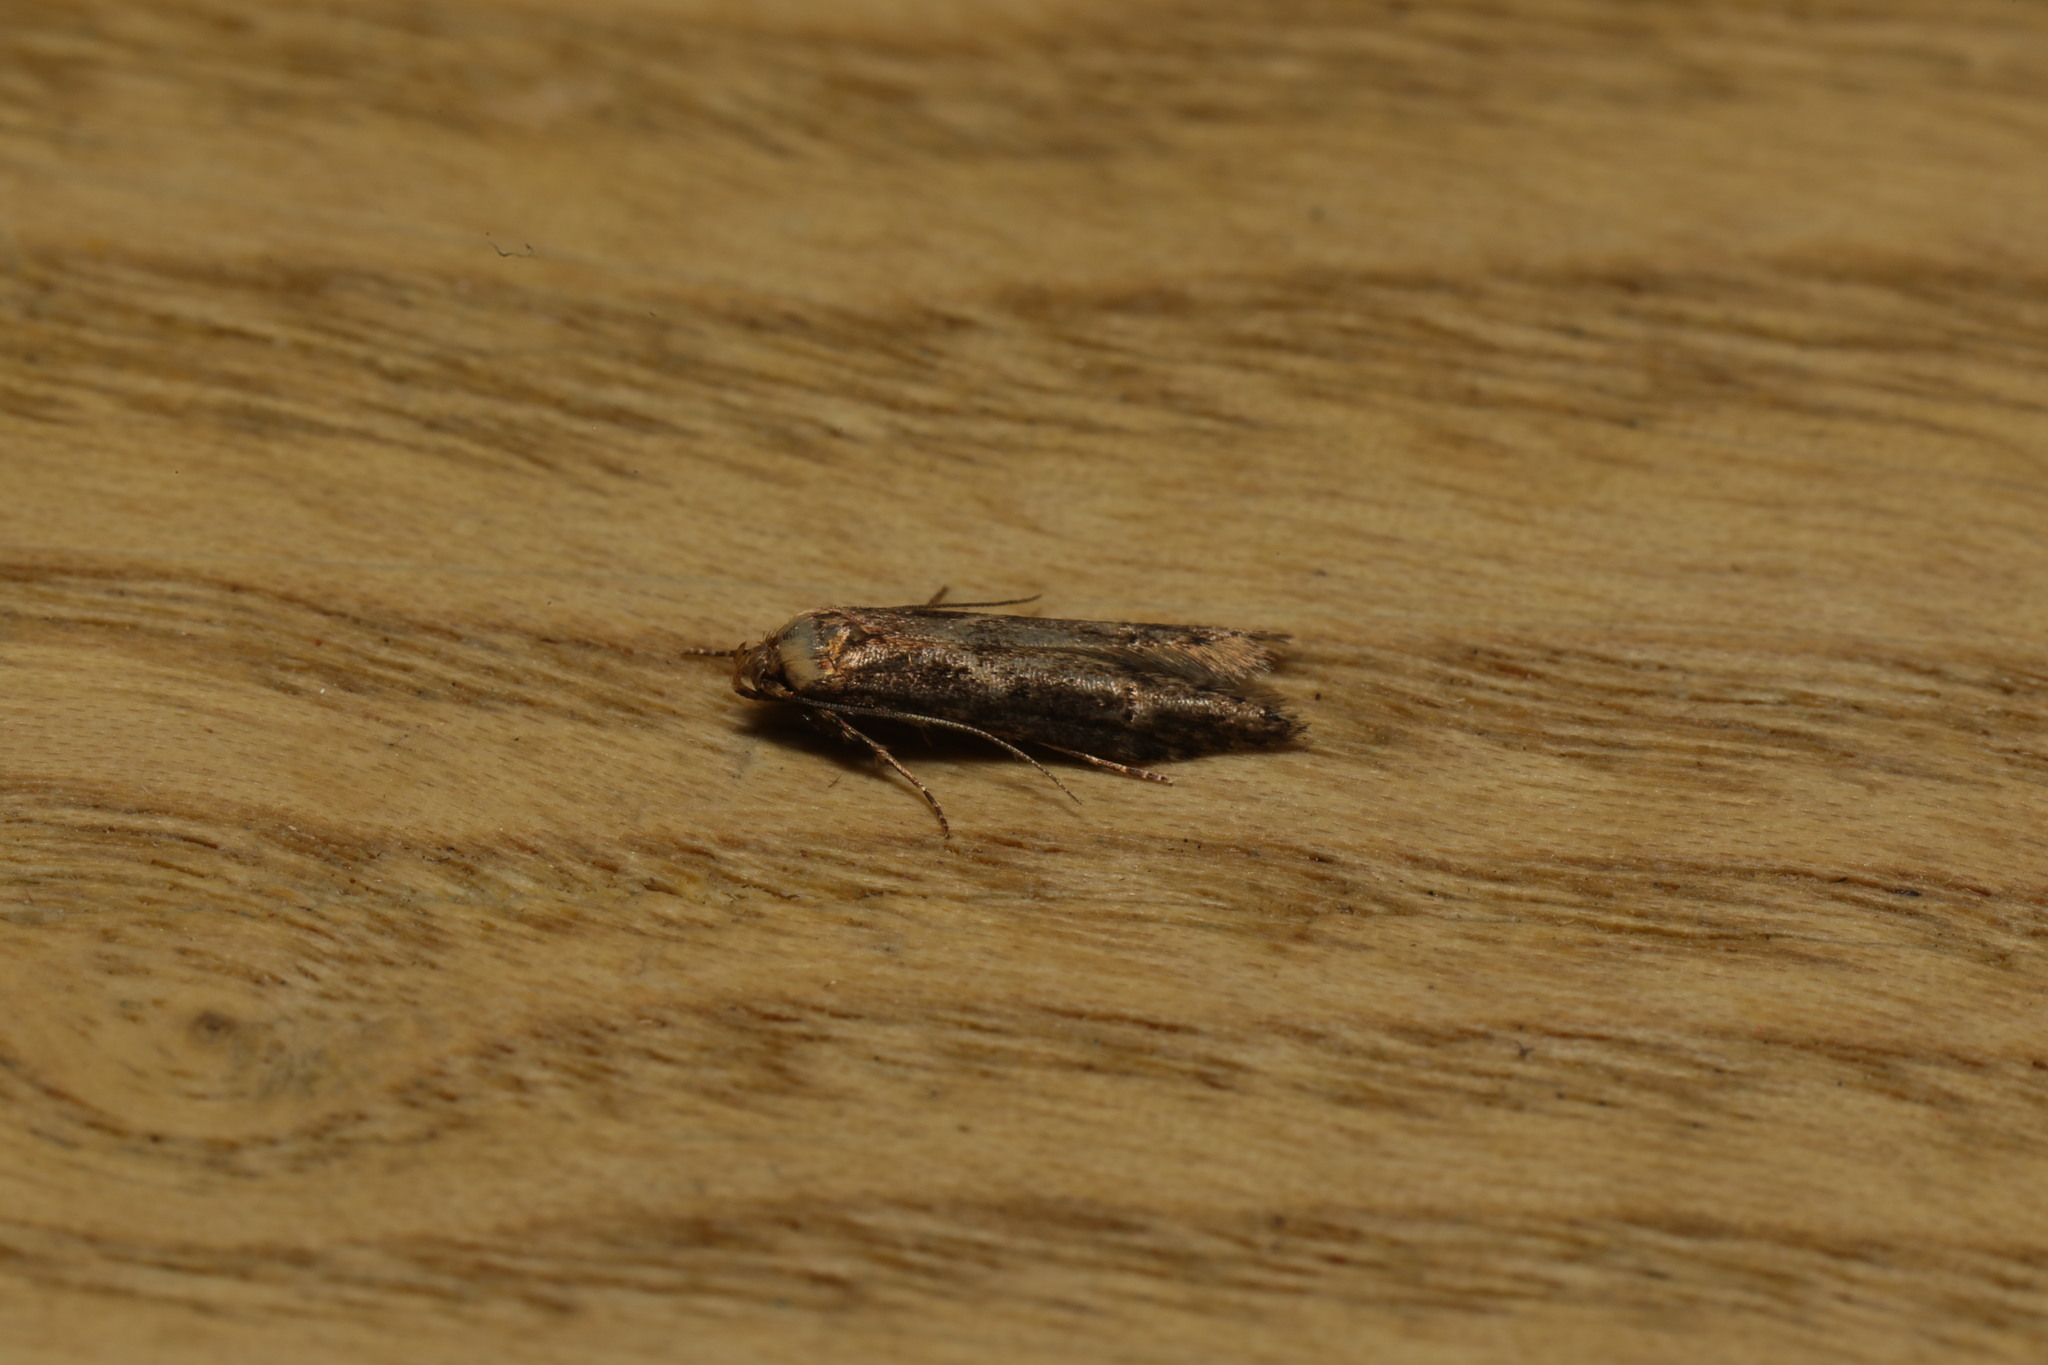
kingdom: Animalia
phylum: Arthropoda
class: Insecta
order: Lepidoptera
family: Blastobasidae
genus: Blastobasis
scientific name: Blastobasis adustella
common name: Dingy dowd
